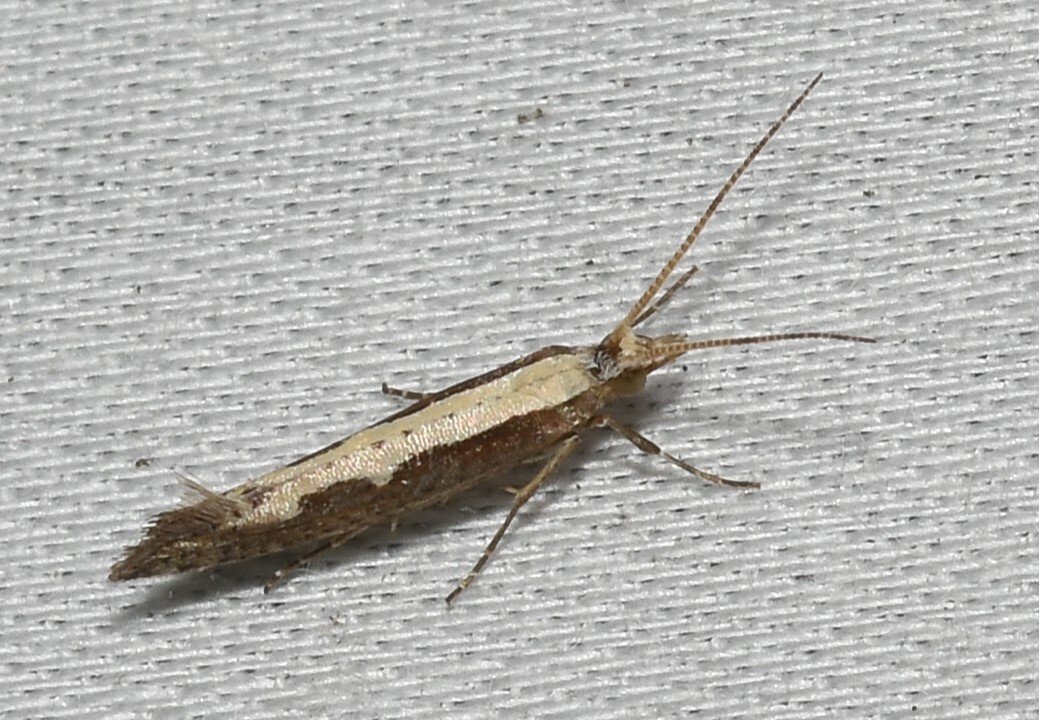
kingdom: Animalia
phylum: Arthropoda
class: Insecta
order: Lepidoptera
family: Plutellidae
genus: Plutella
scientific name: Plutella xylostella
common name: Diamond-back moth
